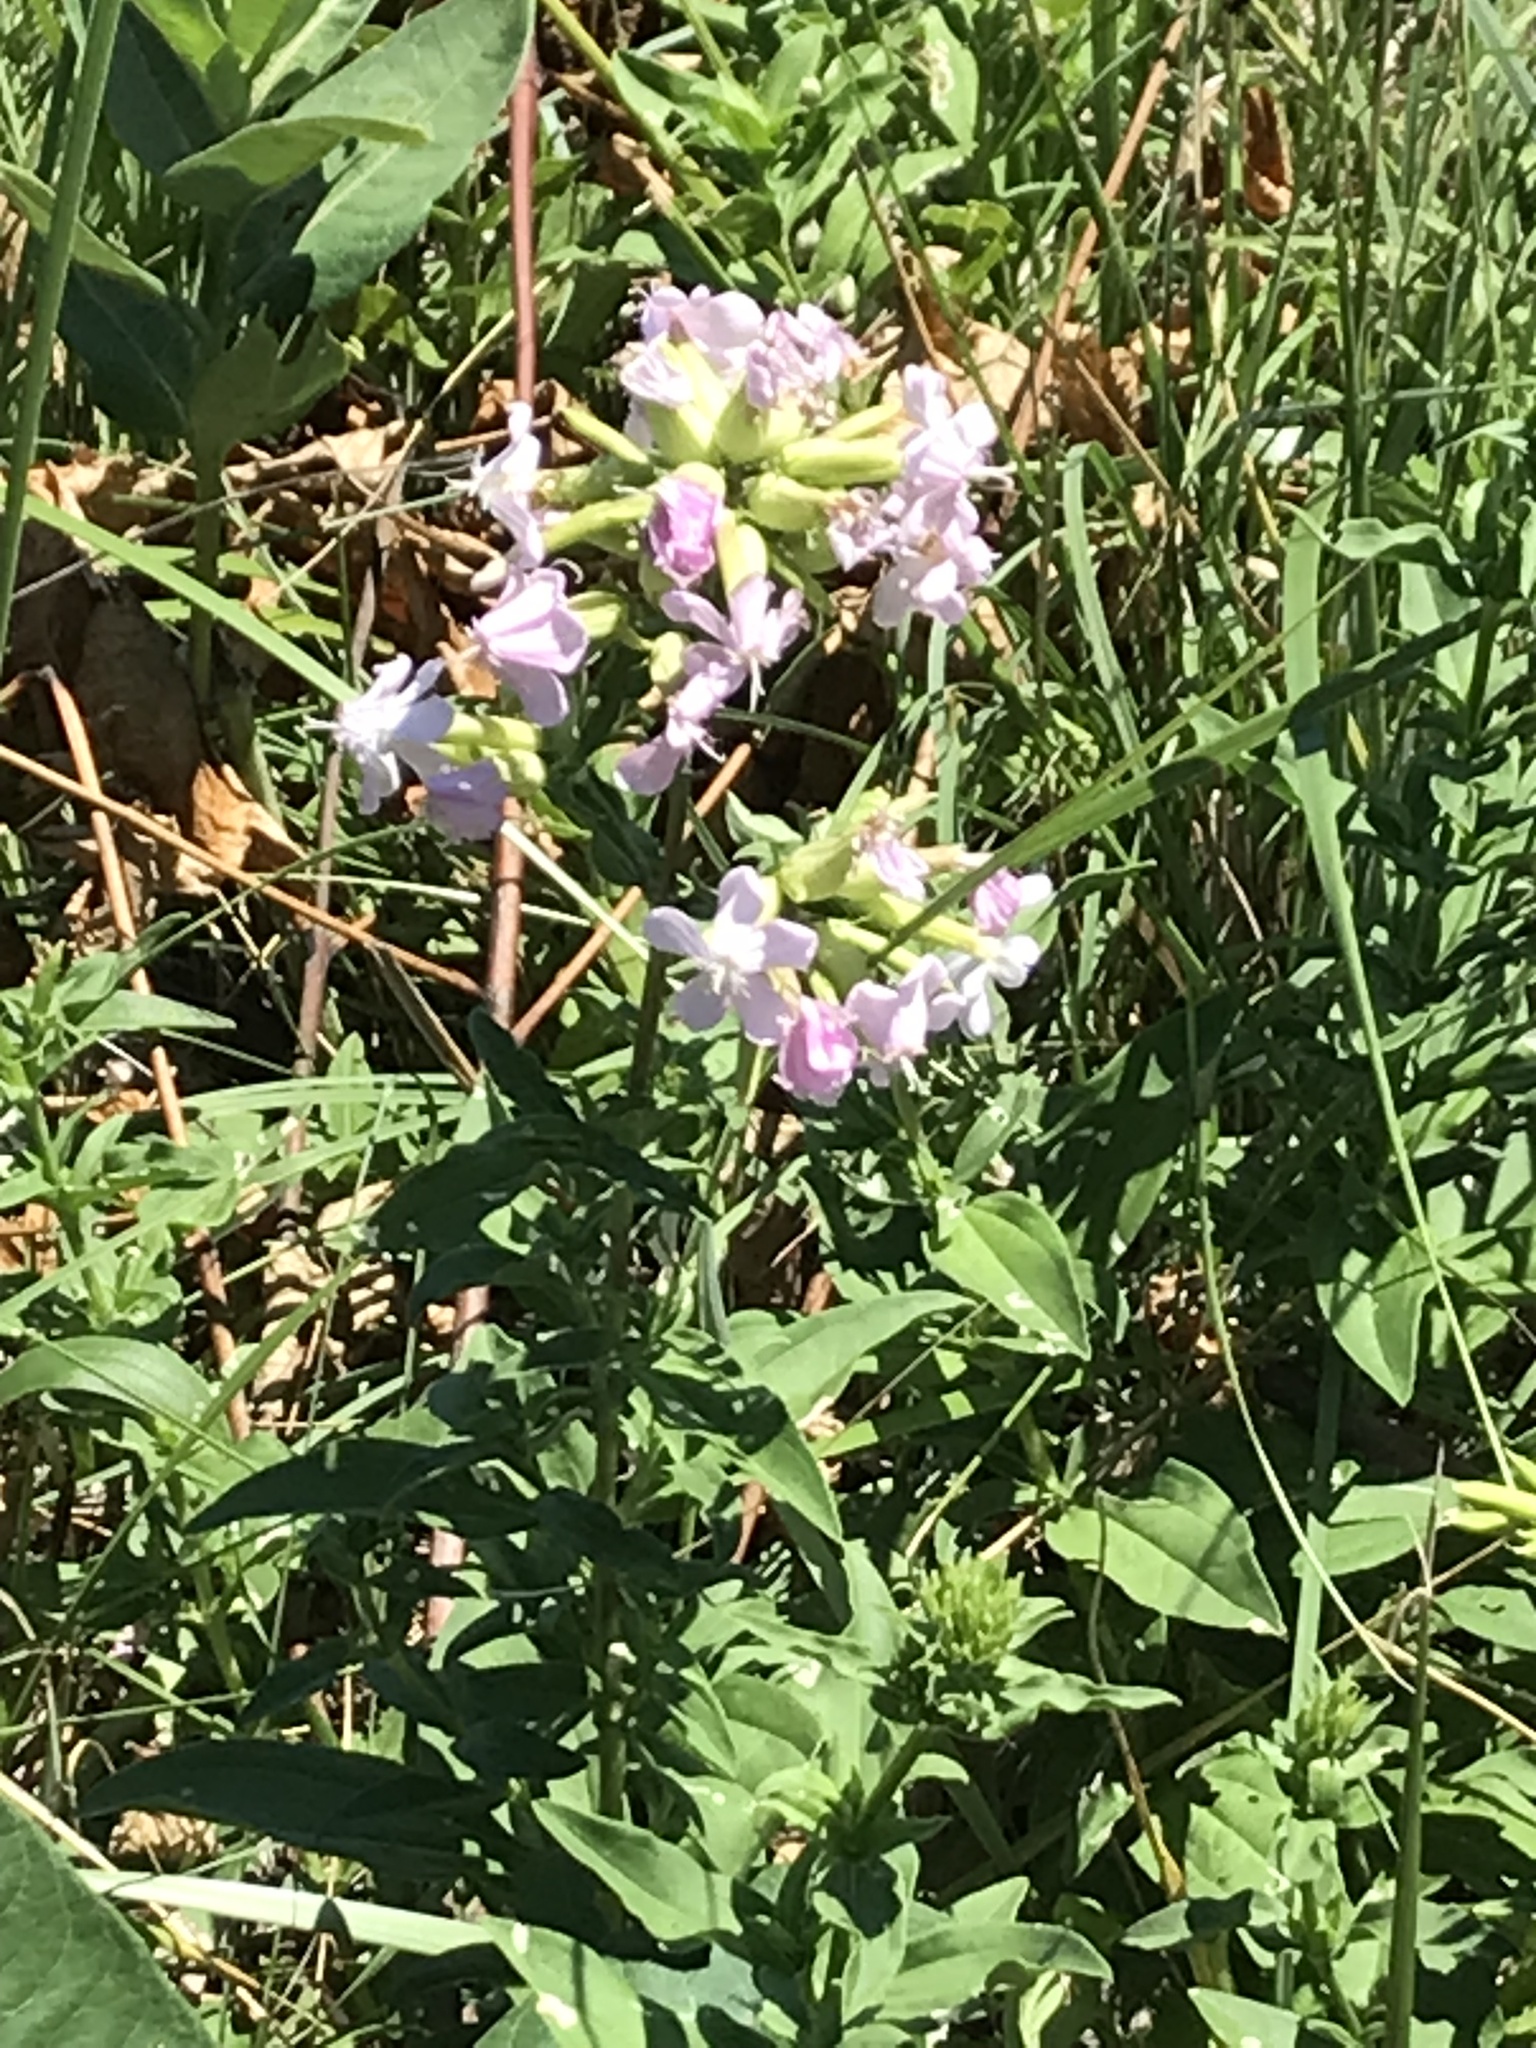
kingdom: Plantae
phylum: Tracheophyta
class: Magnoliopsida
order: Caryophyllales
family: Caryophyllaceae
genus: Saponaria
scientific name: Saponaria officinalis
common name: Soapwort
